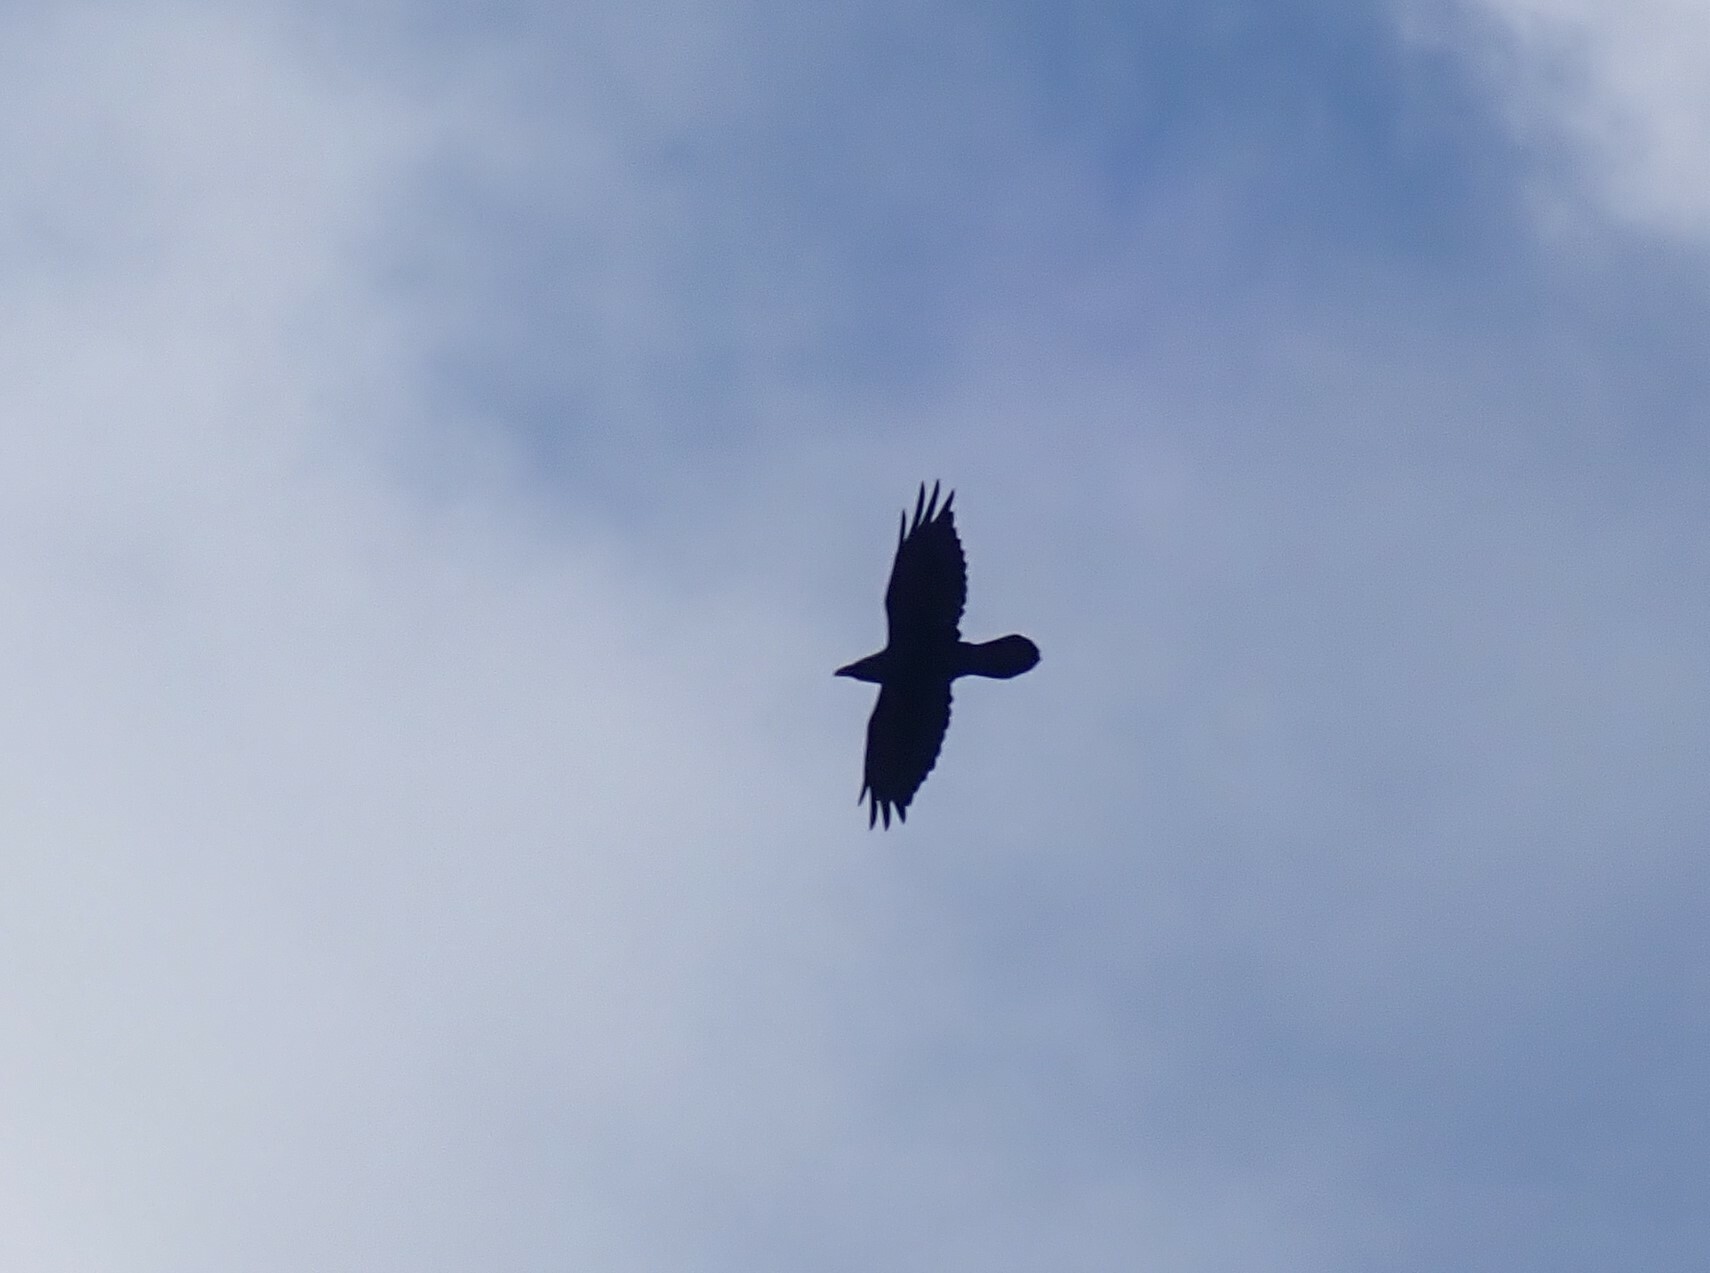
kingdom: Animalia
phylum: Chordata
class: Aves
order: Passeriformes
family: Corvidae
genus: Corvus
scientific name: Corvus corax
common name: Common raven
